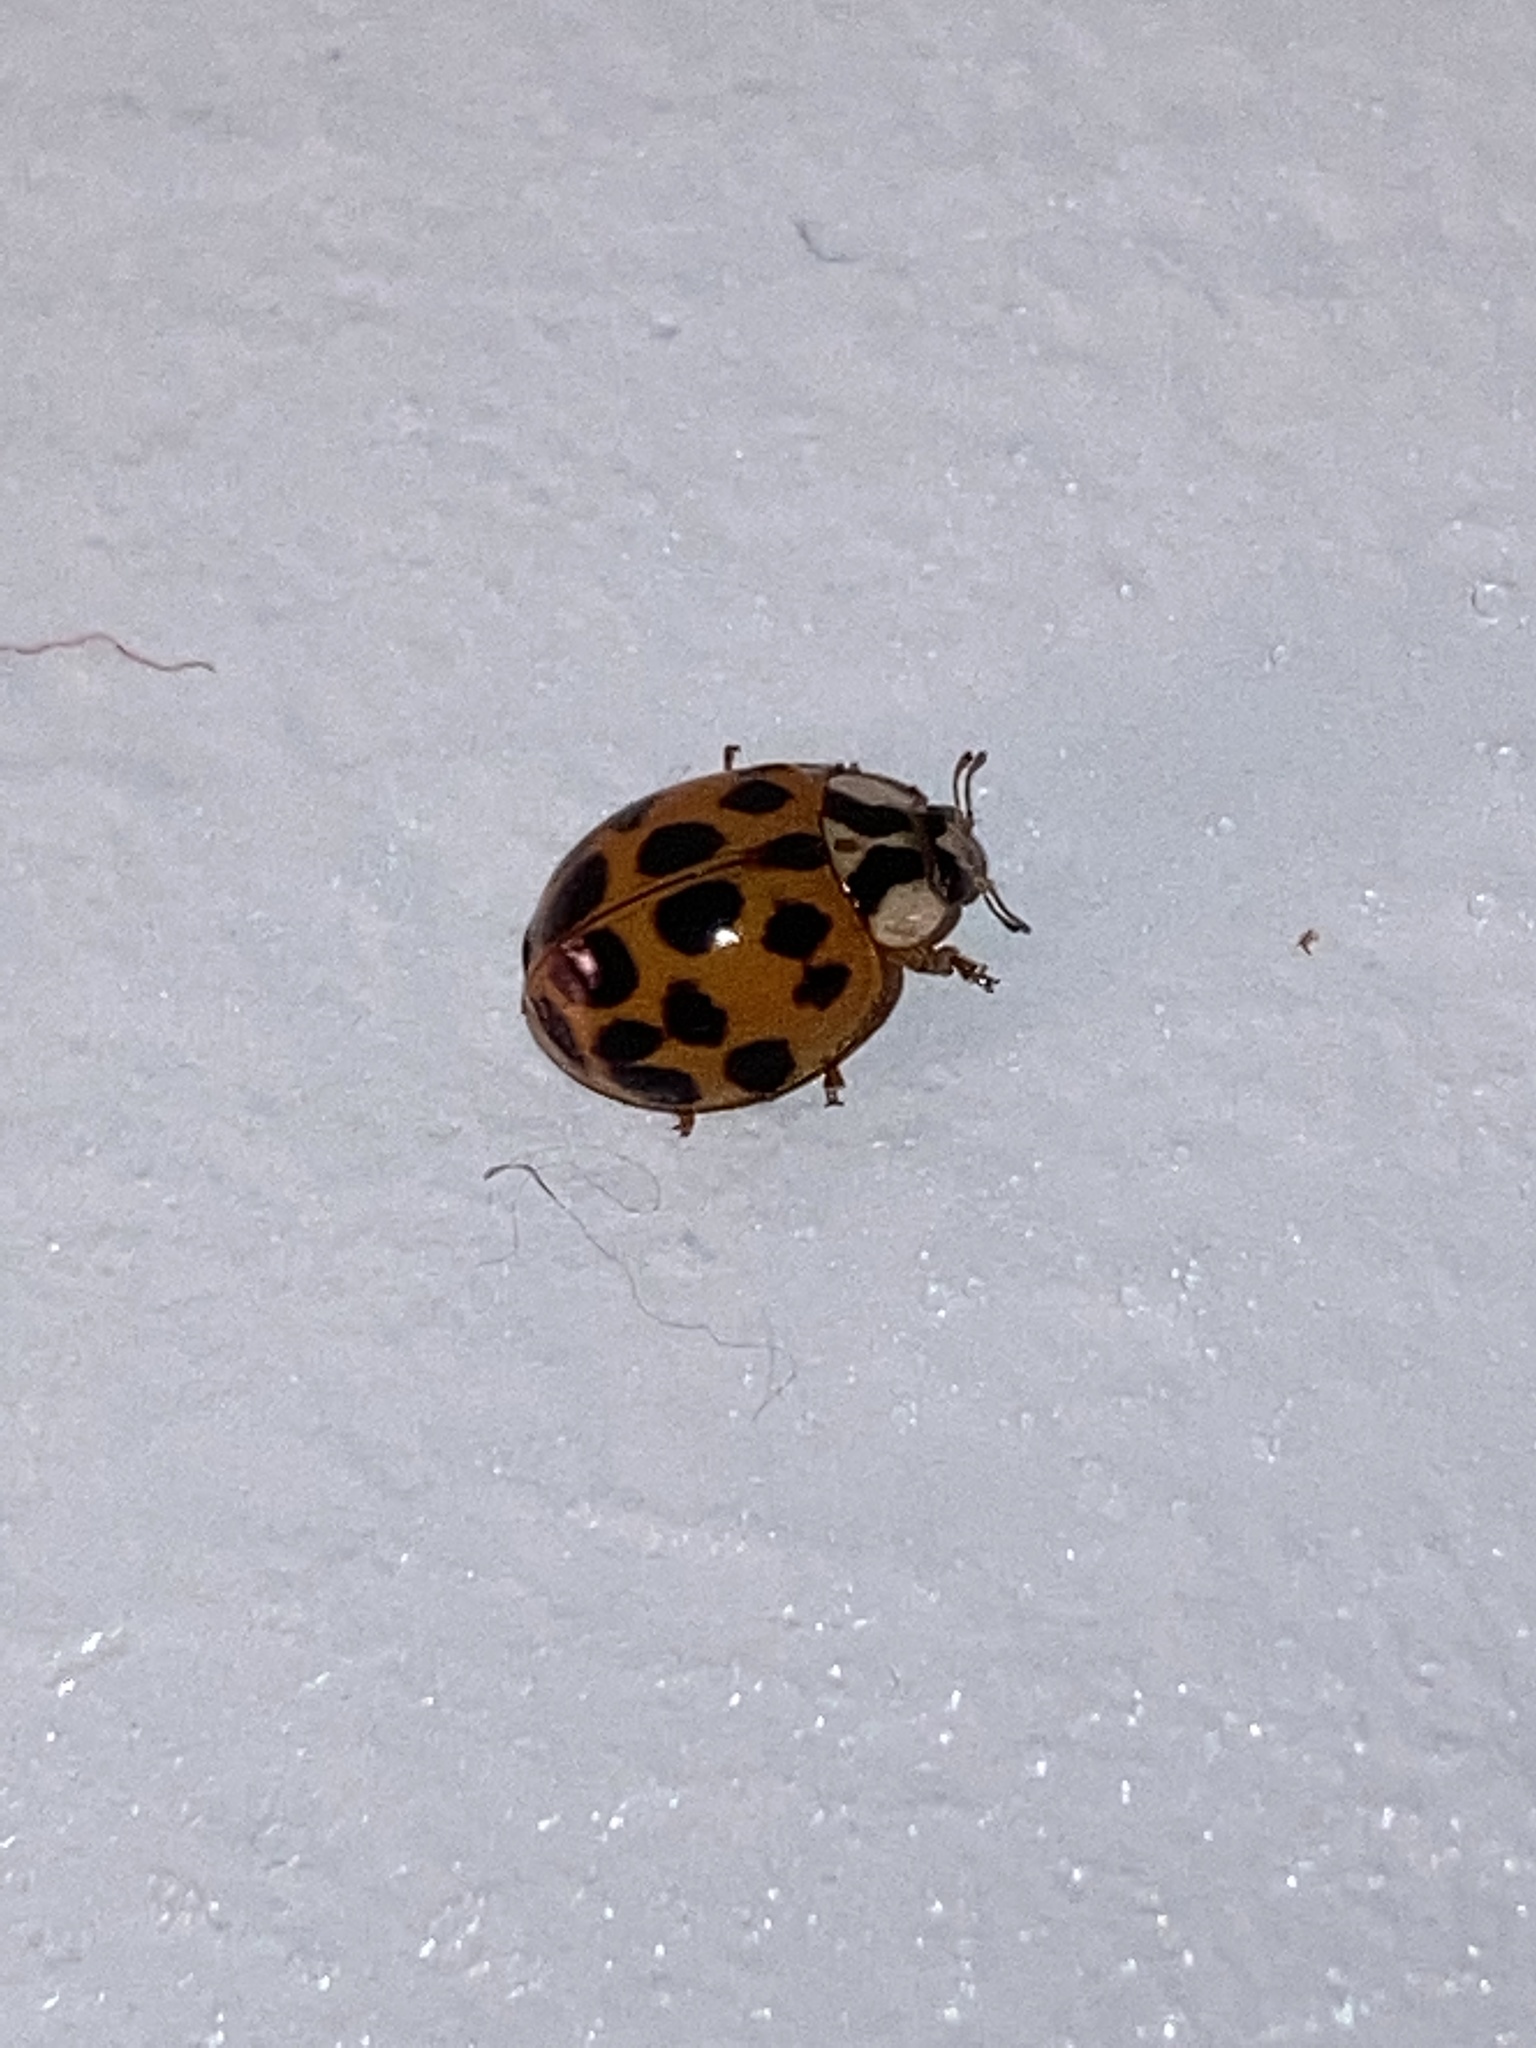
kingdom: Animalia
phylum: Arthropoda
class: Insecta
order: Coleoptera
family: Coccinellidae
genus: Harmonia
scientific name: Harmonia axyridis
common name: Harlequin ladybird
